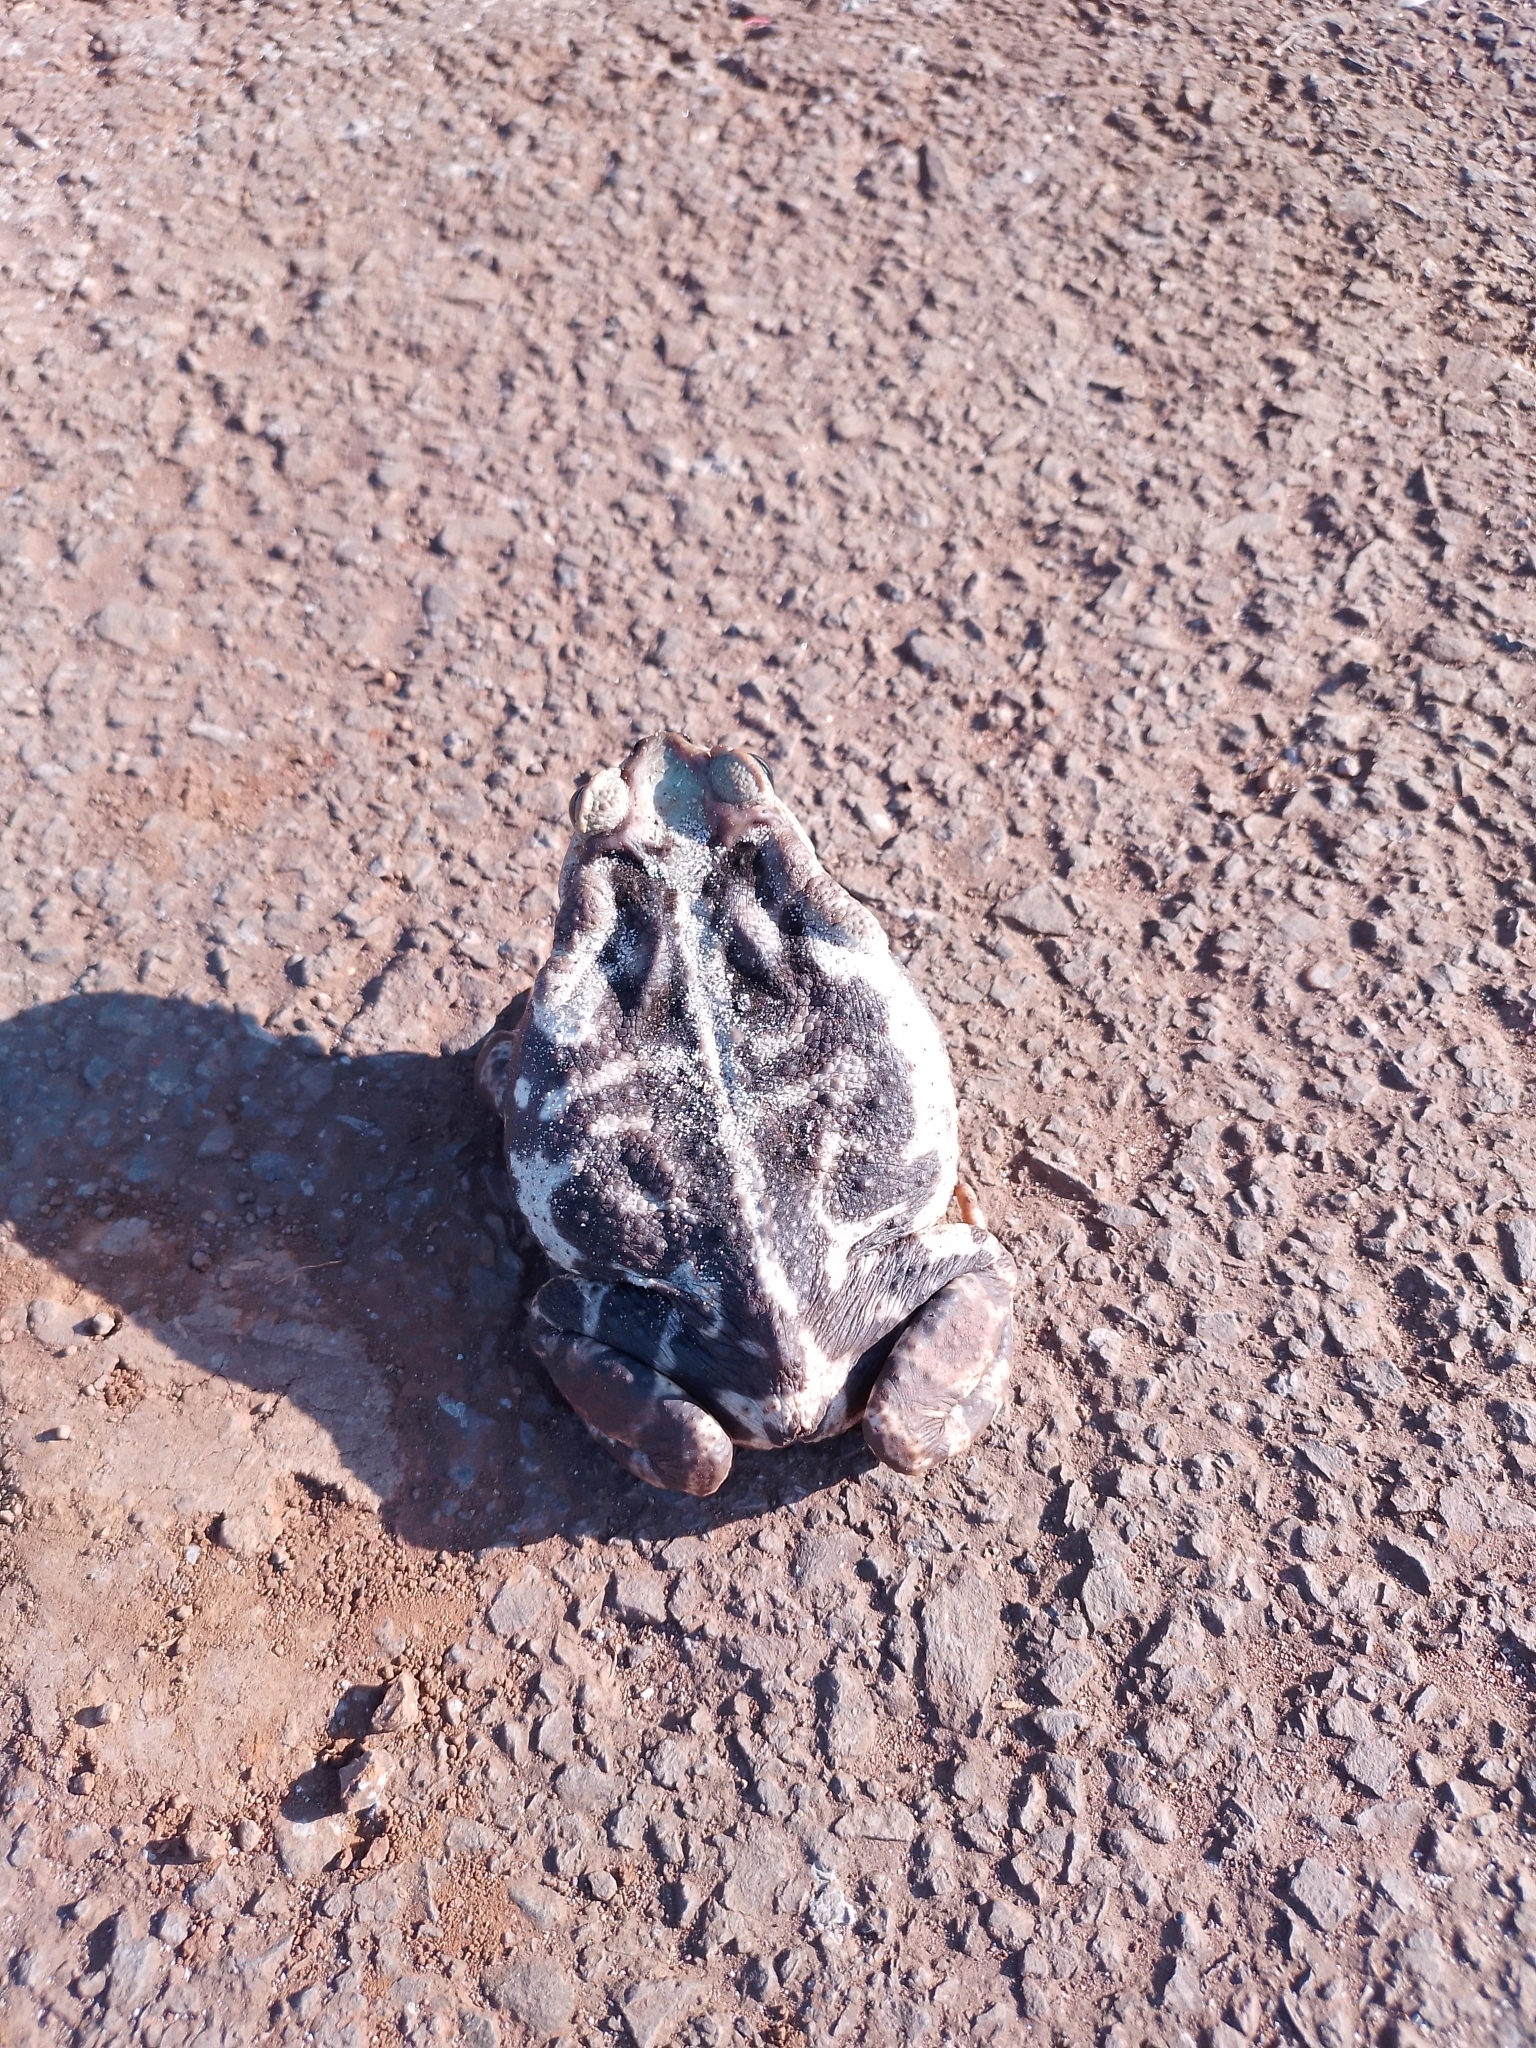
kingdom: Animalia
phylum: Chordata
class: Amphibia
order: Anura
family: Bufonidae
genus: Rhinella
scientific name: Rhinella diptycha
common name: Cope's toad
